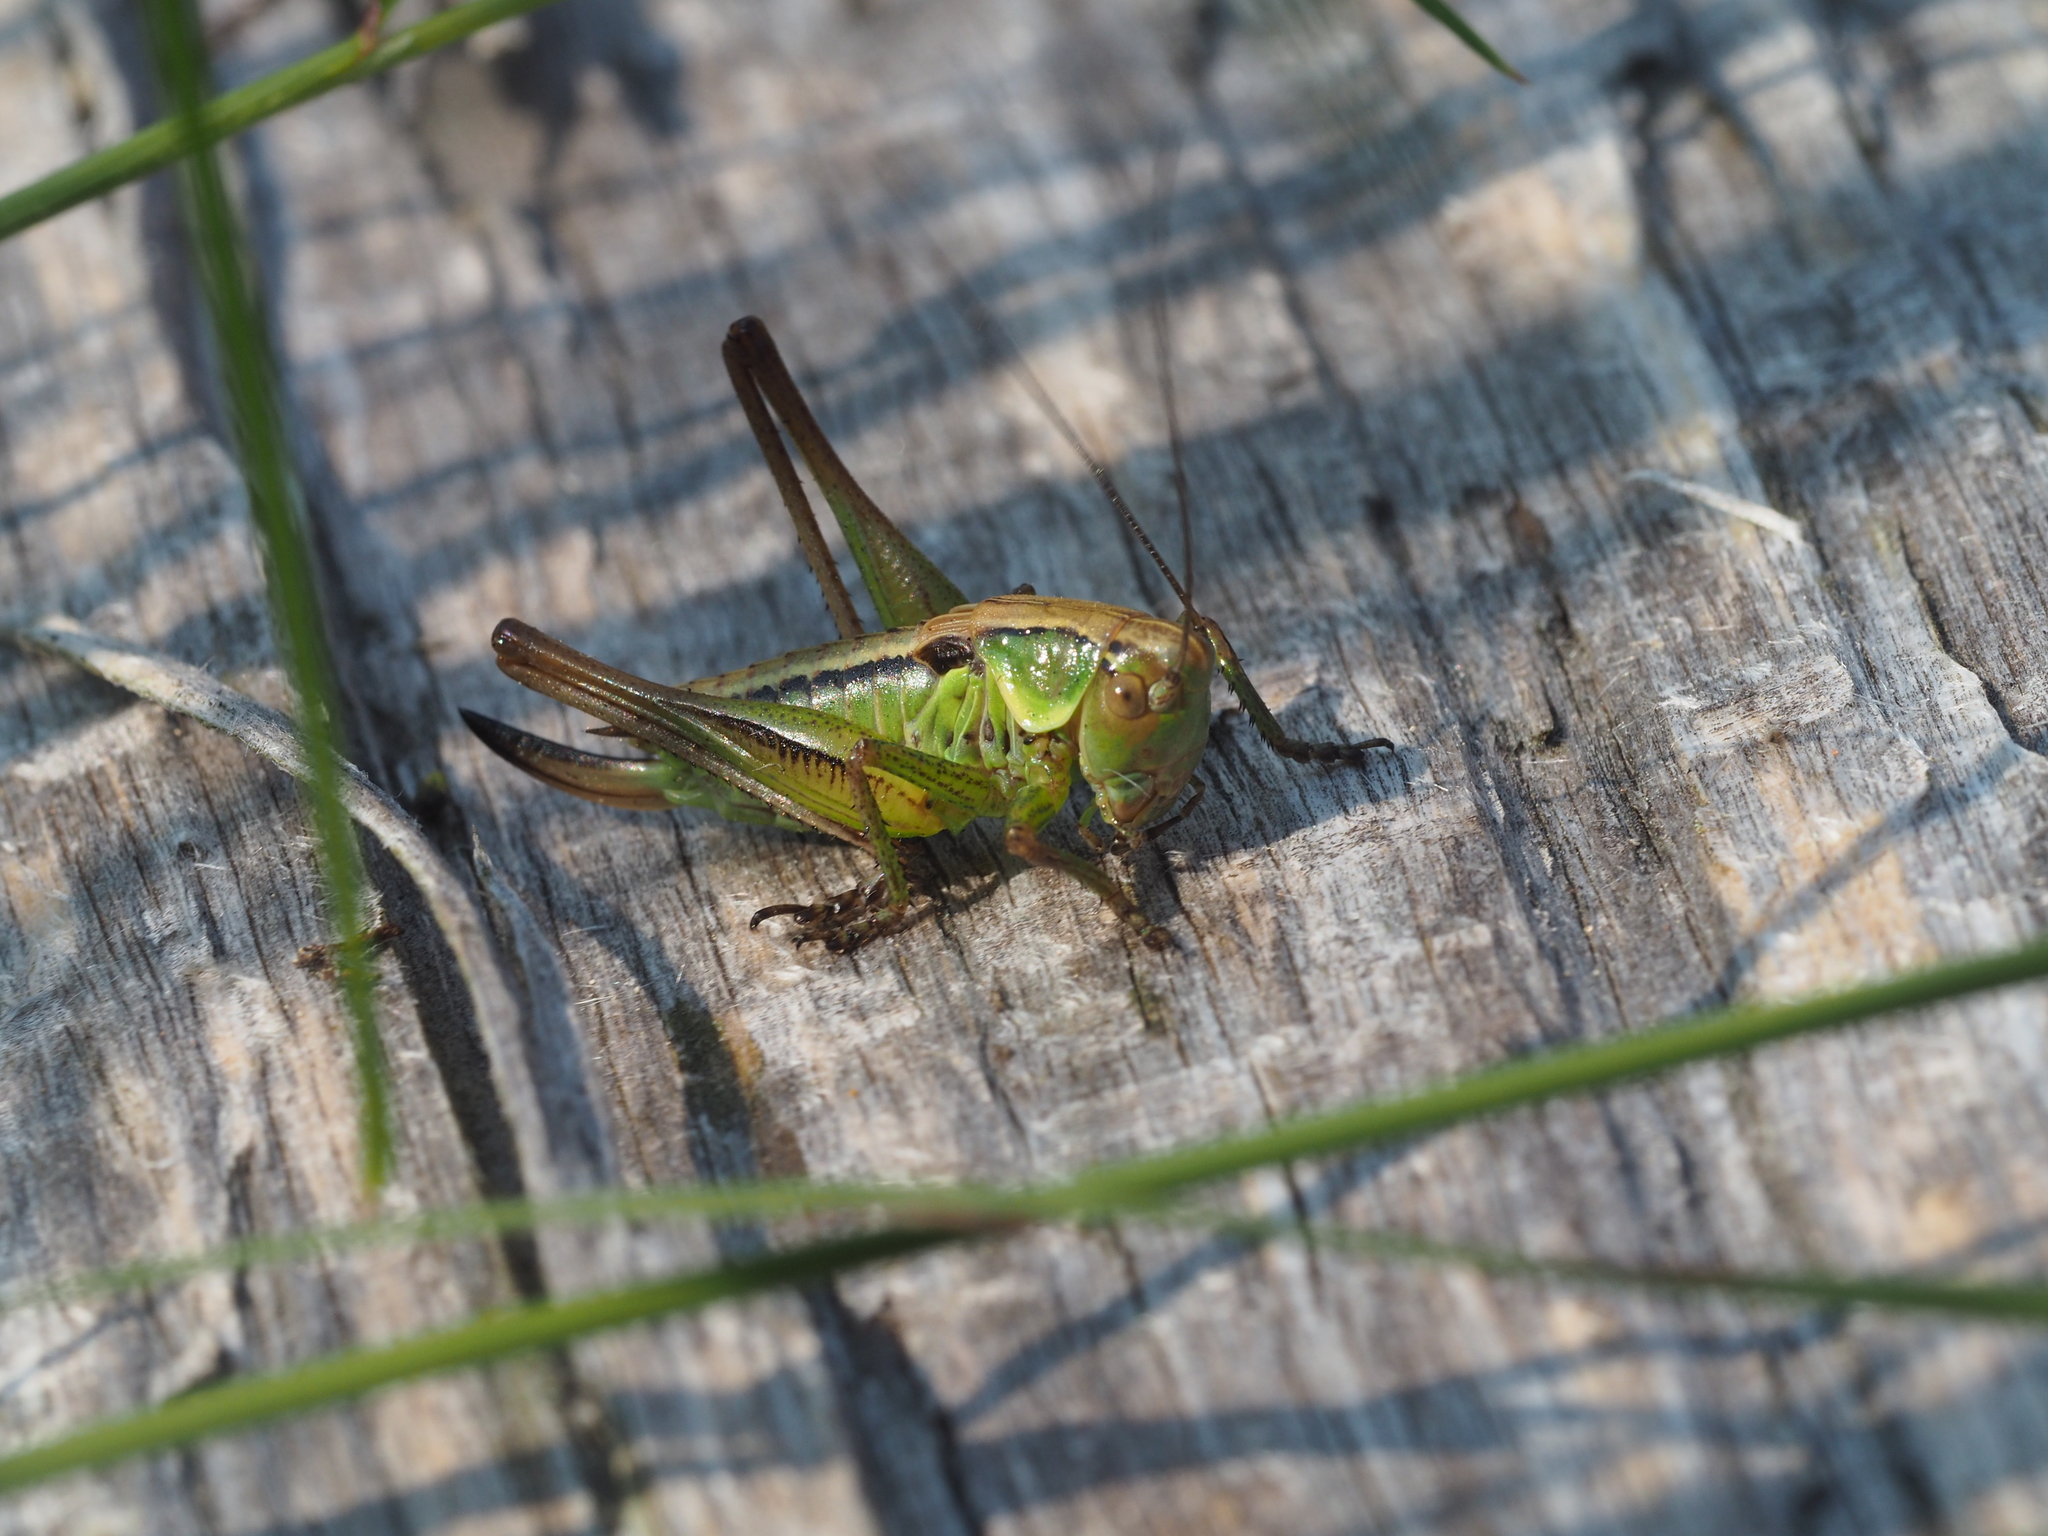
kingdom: Animalia
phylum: Arthropoda
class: Insecta
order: Orthoptera
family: Tettigoniidae
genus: Roeseliana
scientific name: Roeseliana roeselii
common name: Roesel's bush cricket
